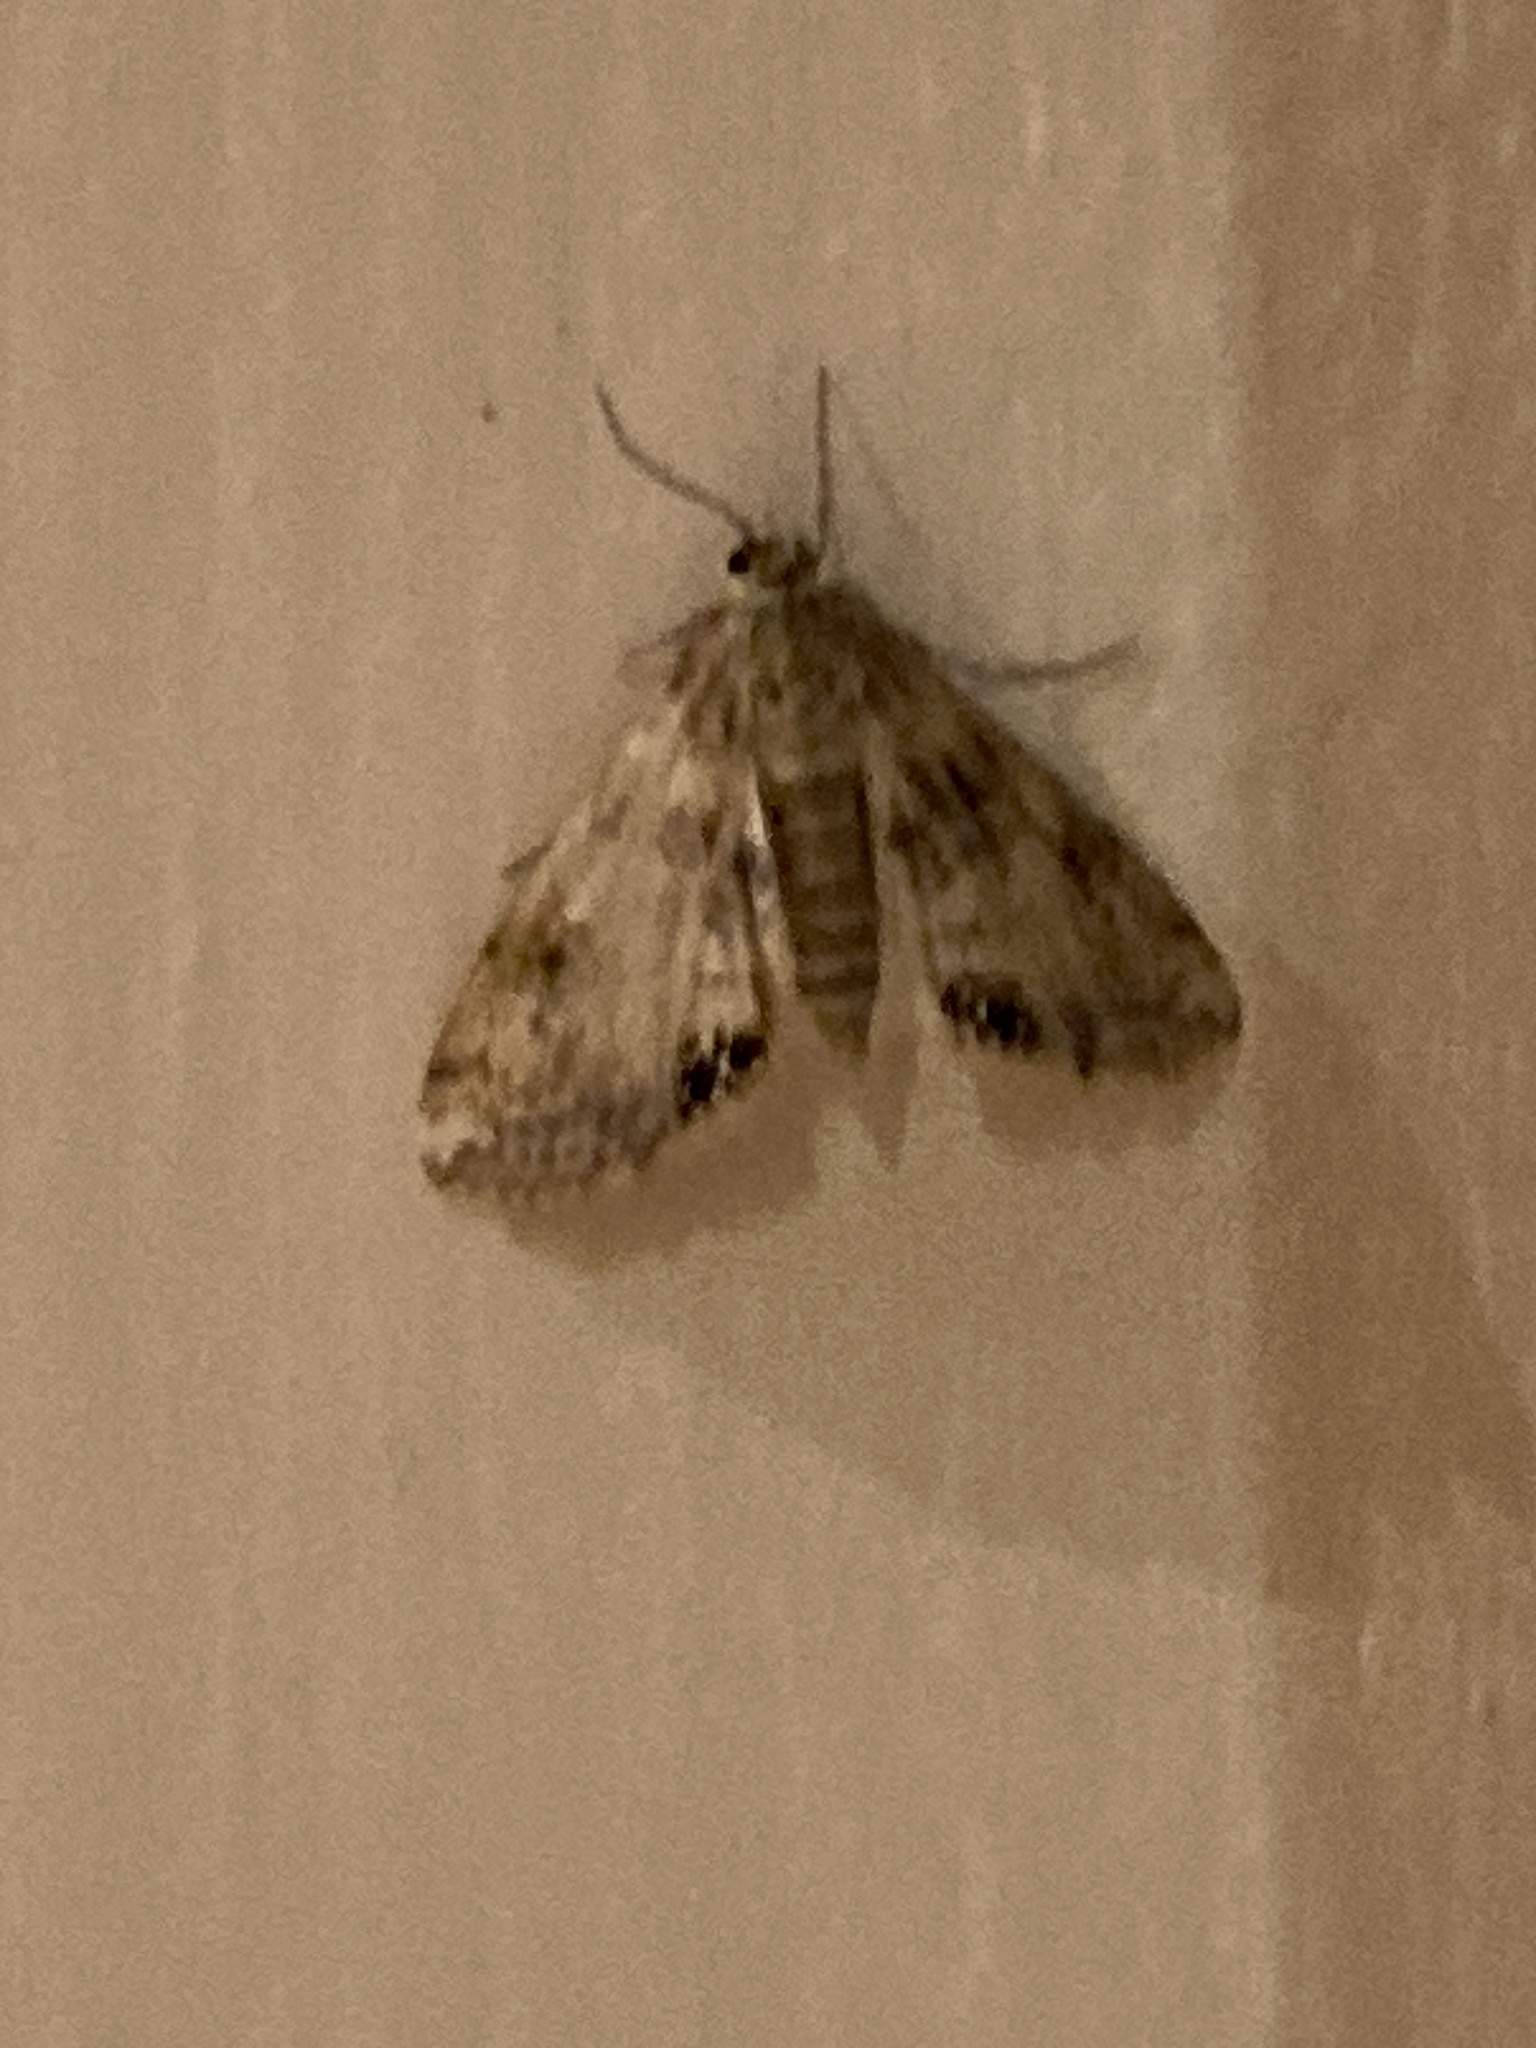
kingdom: Animalia
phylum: Arthropoda
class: Insecta
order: Lepidoptera
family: Crambidae
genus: Cataclysta
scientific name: Cataclysta lemnata
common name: Small china-mark
